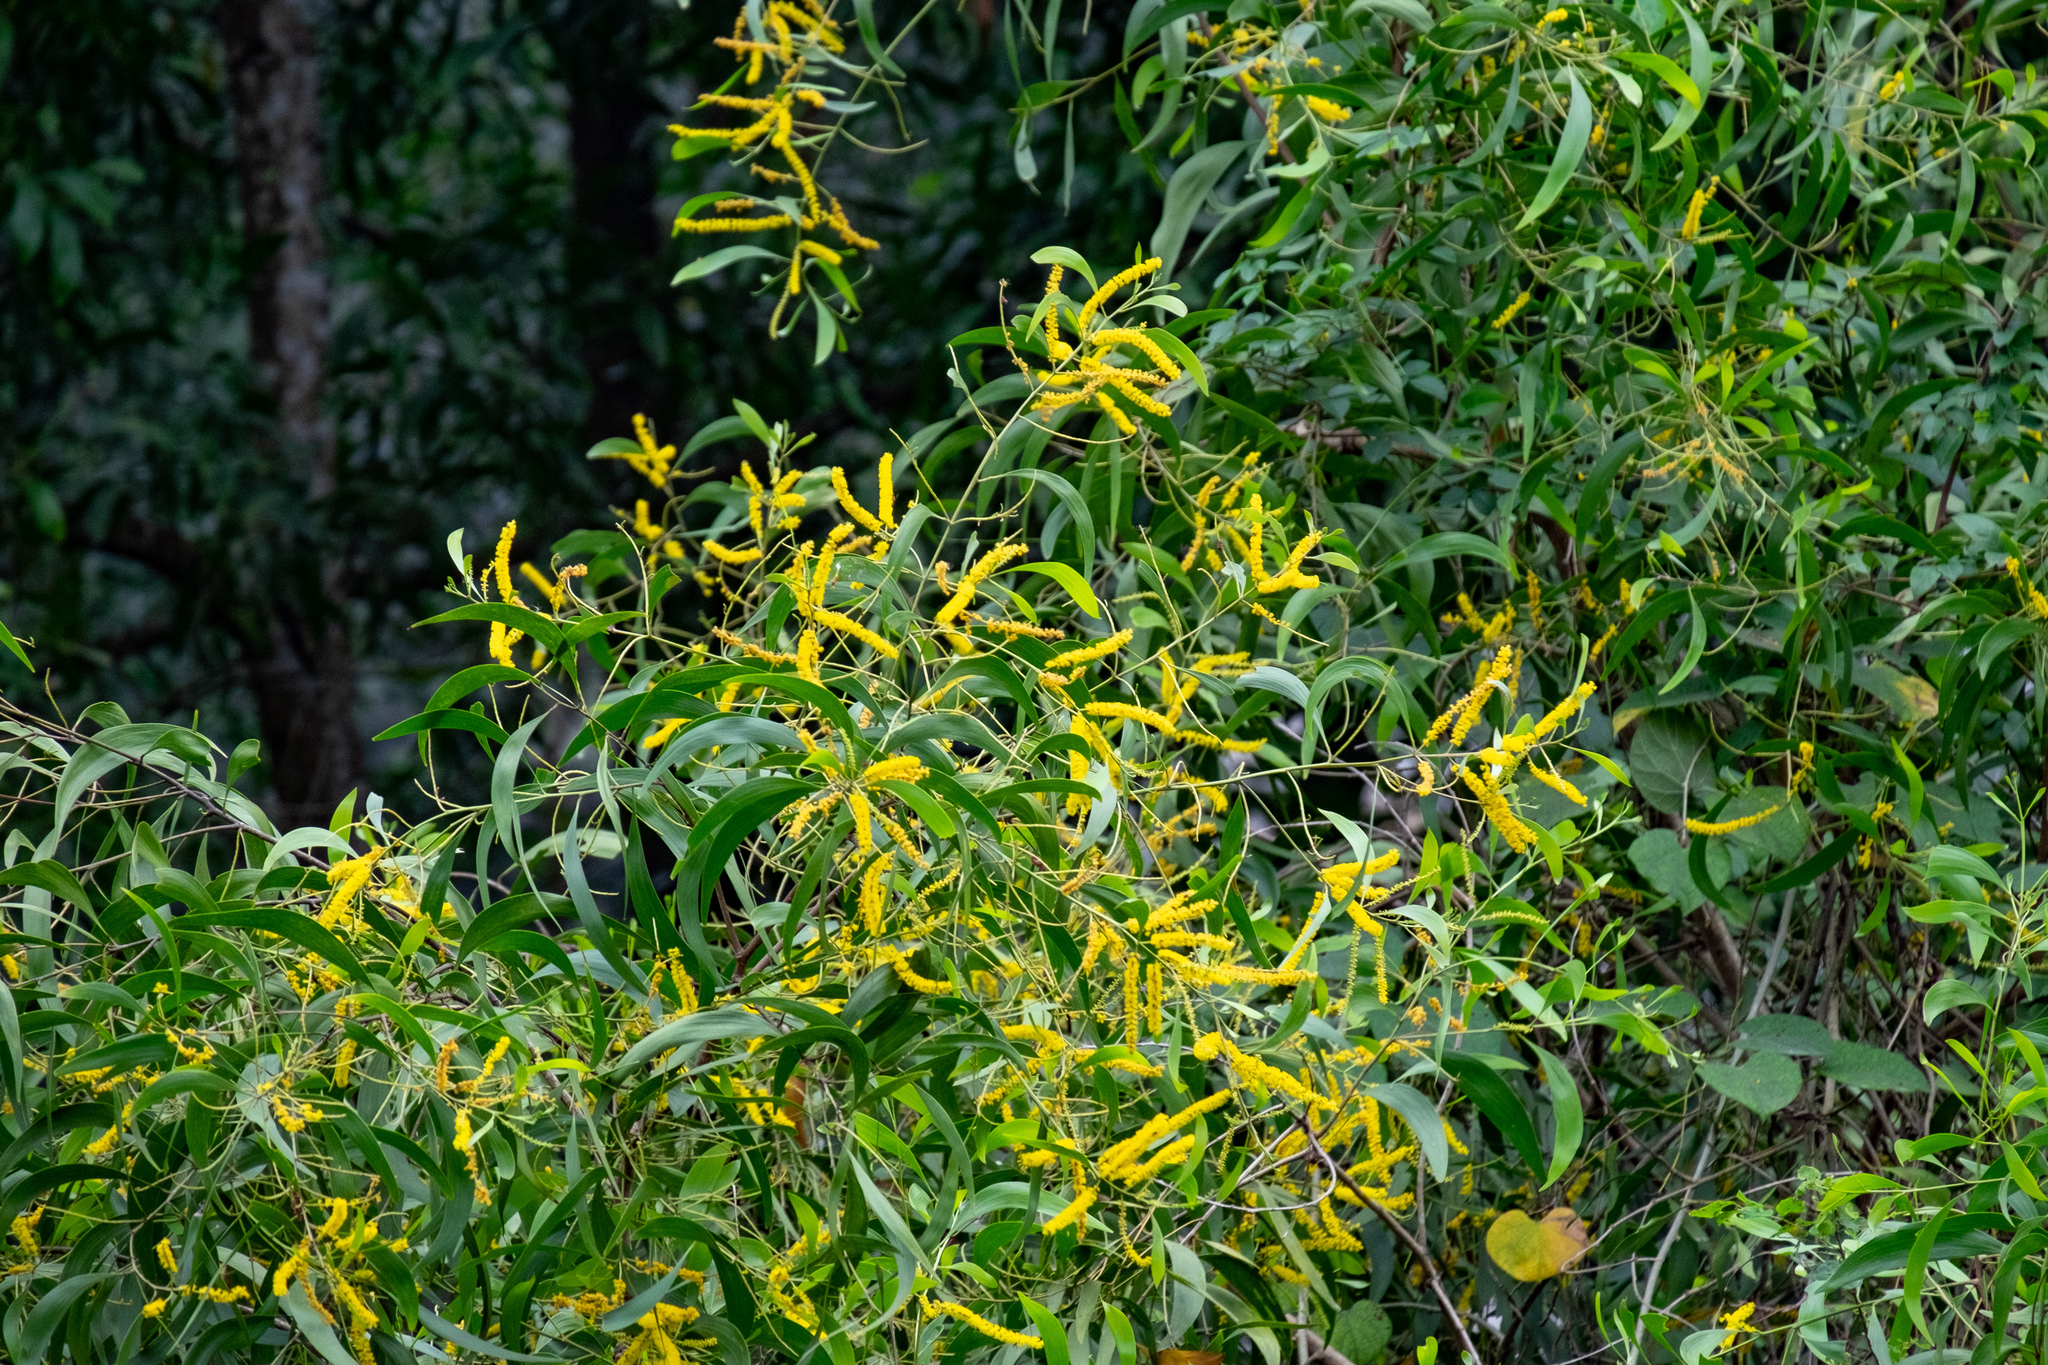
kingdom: Plantae
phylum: Tracheophyta
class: Magnoliopsida
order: Fabales
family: Fabaceae
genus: Acacia
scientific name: Acacia auriculiformis
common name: Earleaf acacia
